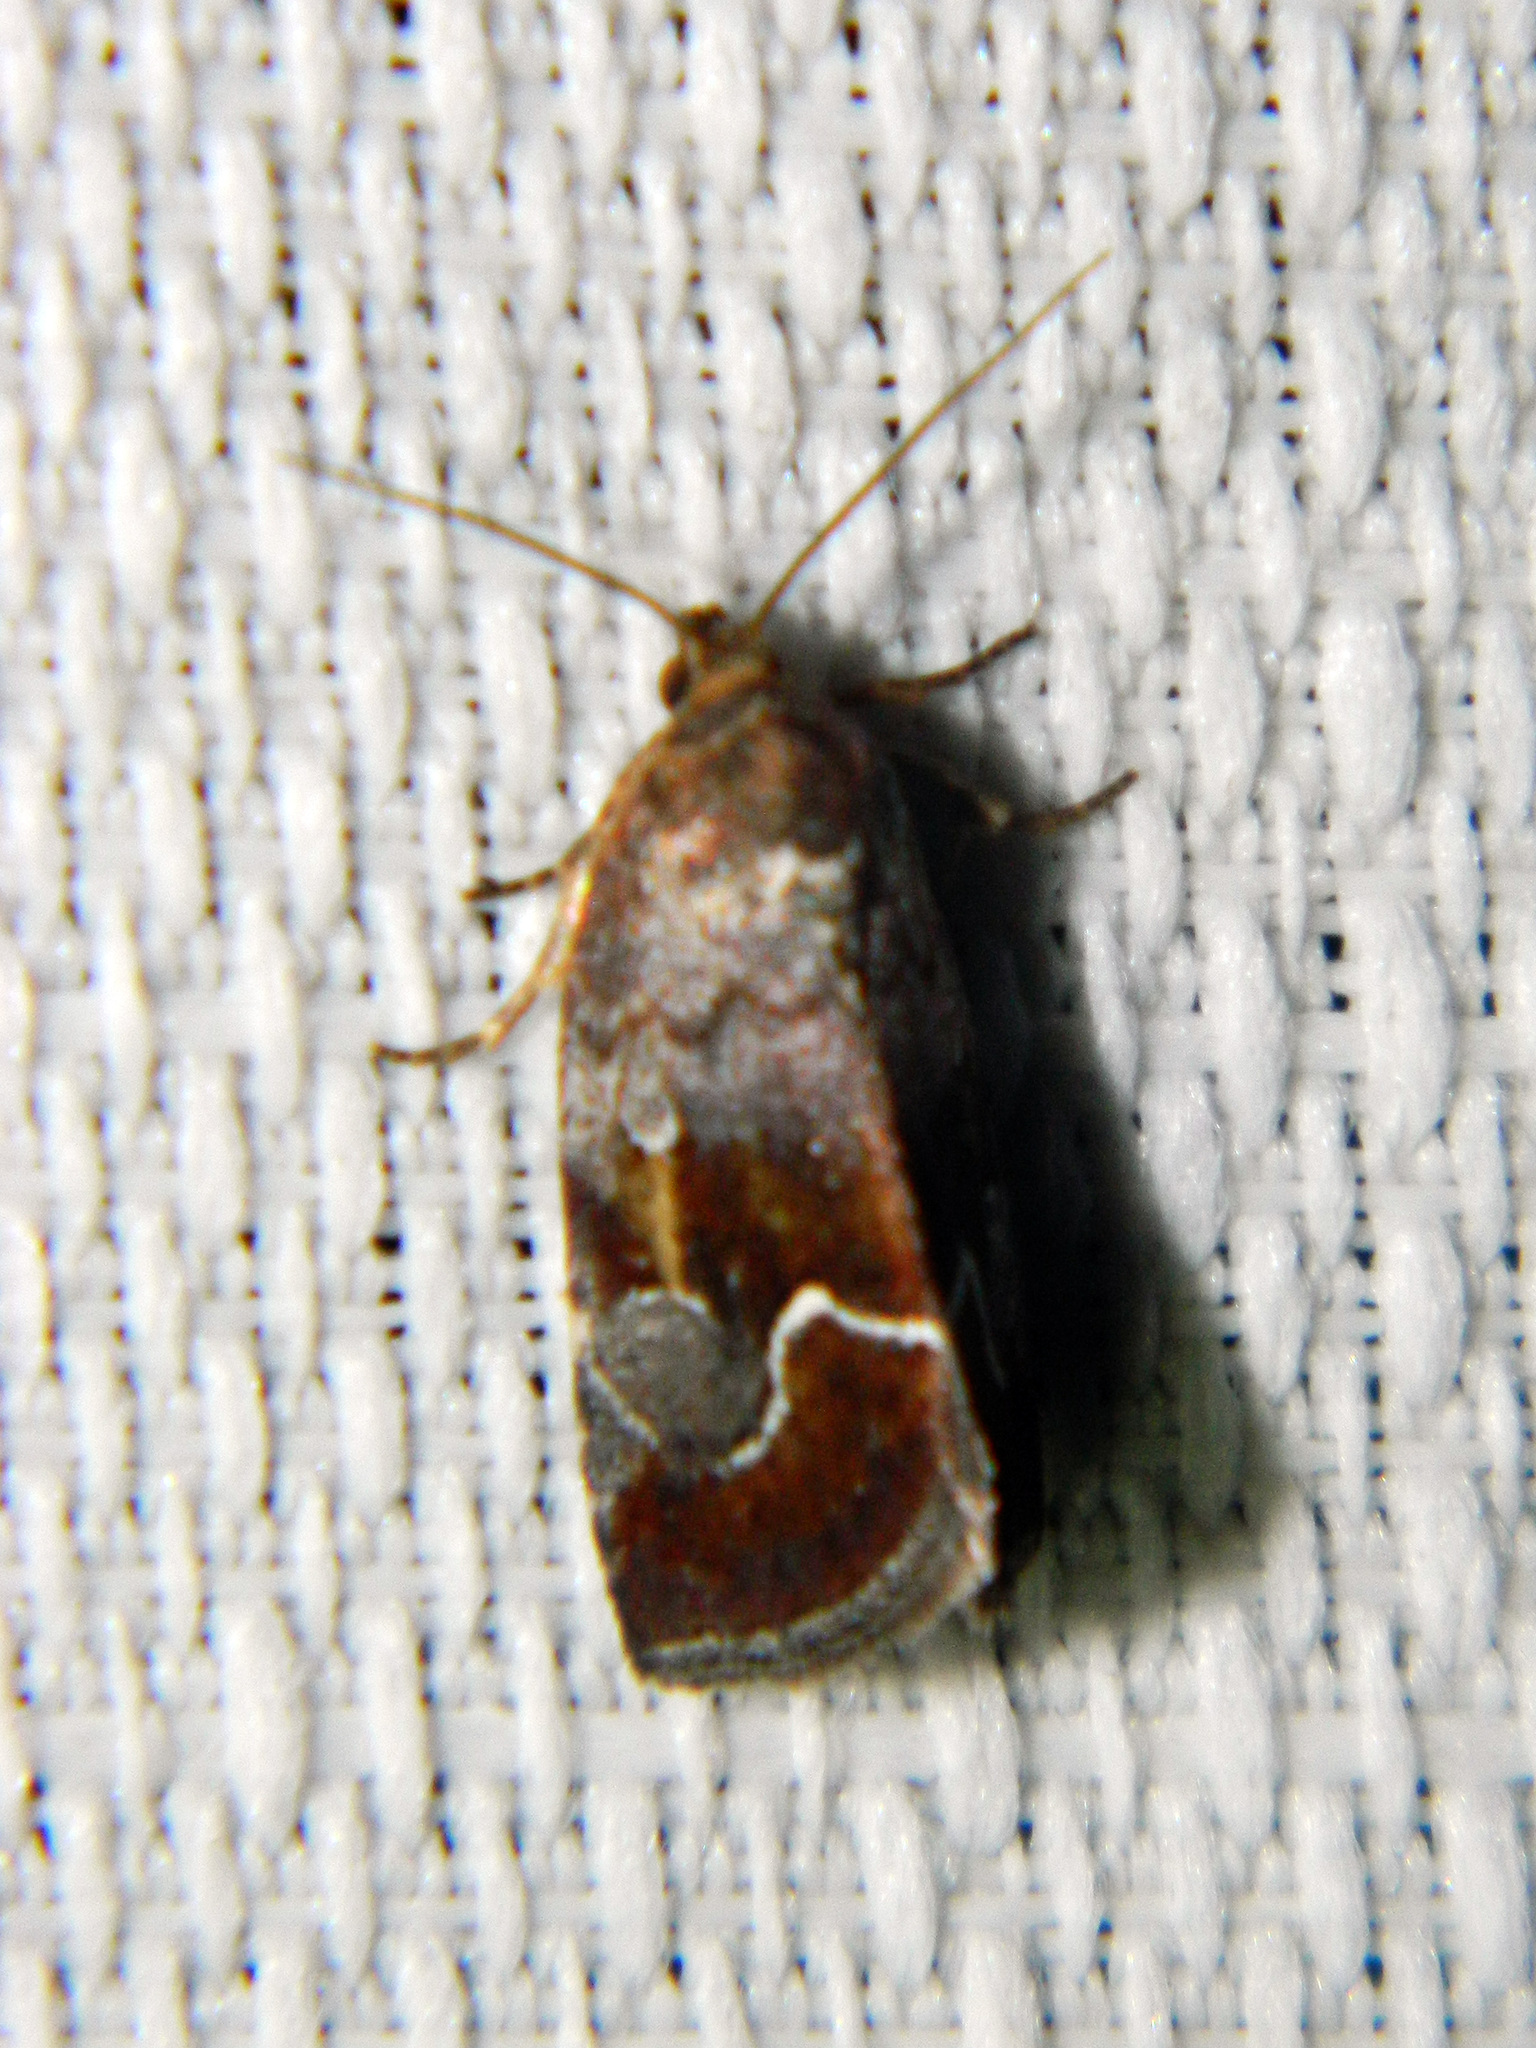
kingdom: Animalia
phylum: Arthropoda
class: Insecta
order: Lepidoptera
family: Noctuidae
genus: Deltote
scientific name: Deltote bellicula
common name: Bog glyph
